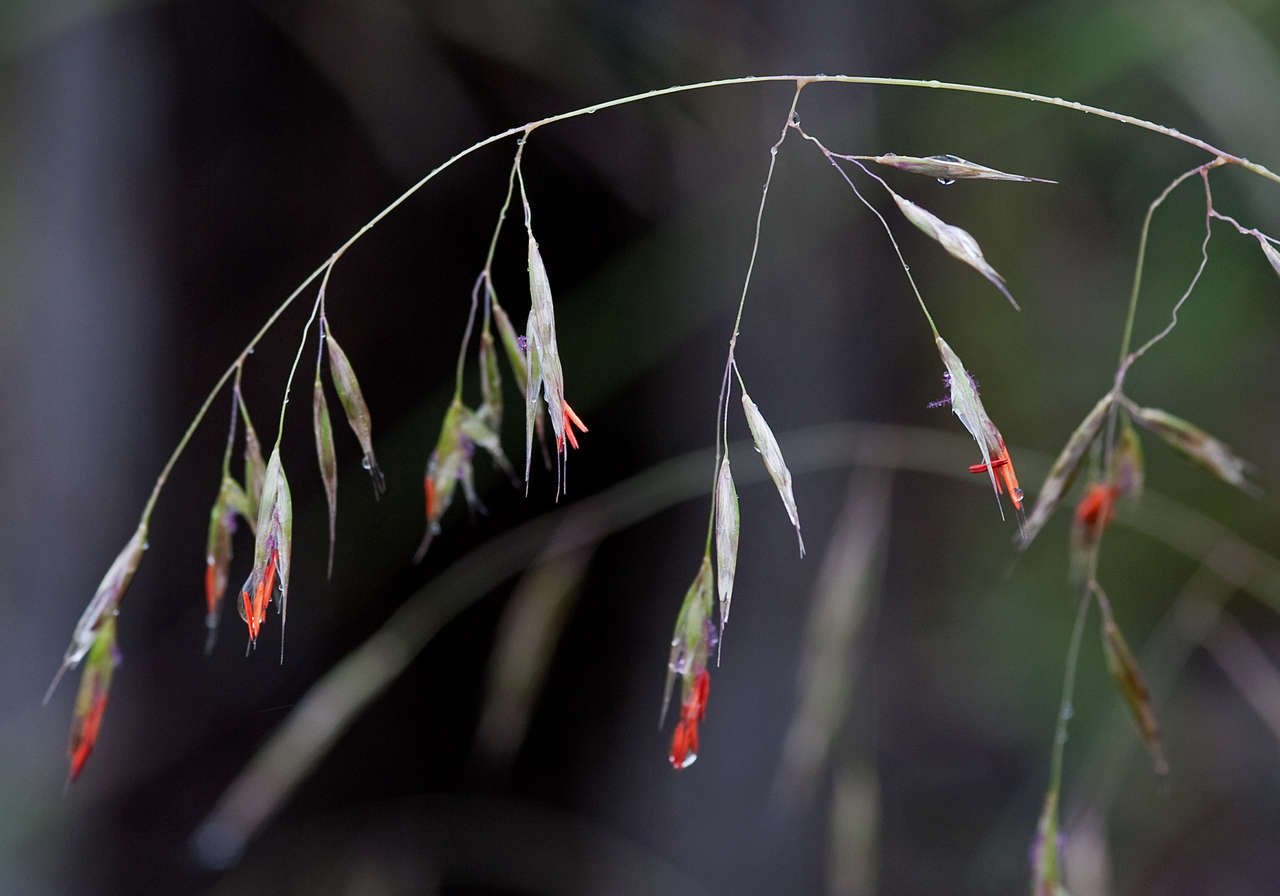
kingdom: Plantae
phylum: Tracheophyta
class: Liliopsida
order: Poales
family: Poaceae
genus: Rytidosperma
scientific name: Rytidosperma pallidum
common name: Red-anther wallaby grass
